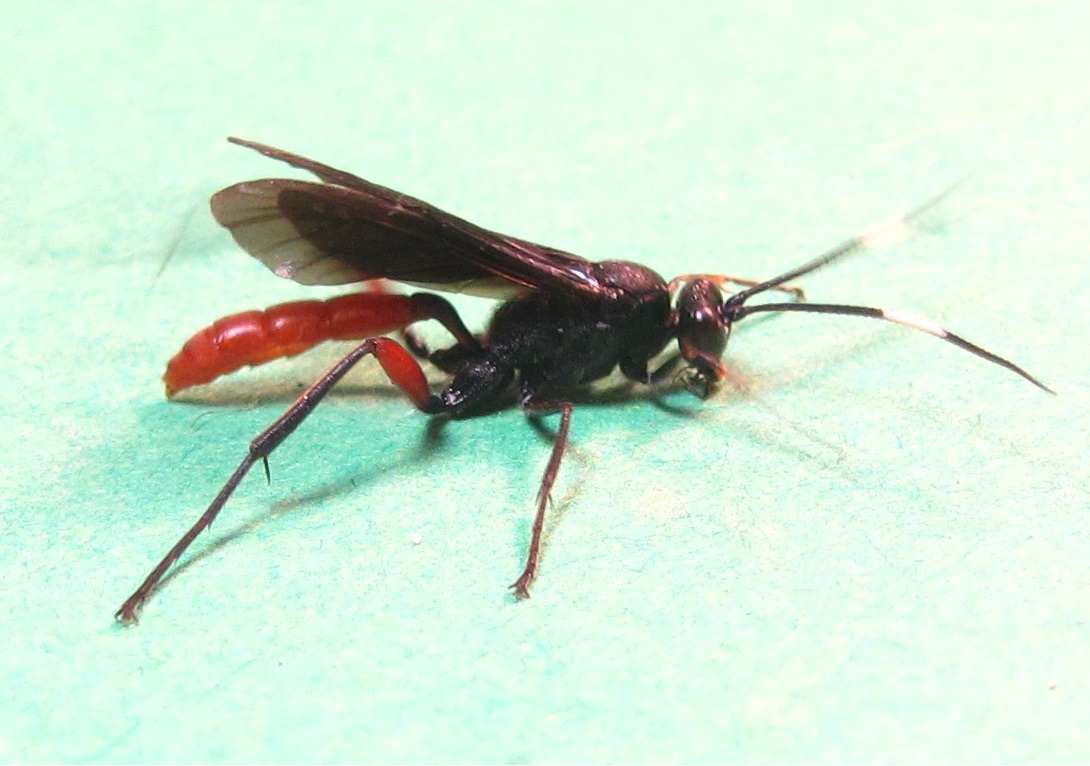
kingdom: Animalia
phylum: Arthropoda
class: Insecta
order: Hymenoptera
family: Ichneumonidae
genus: Limonethe
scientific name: Limonethe maurator
